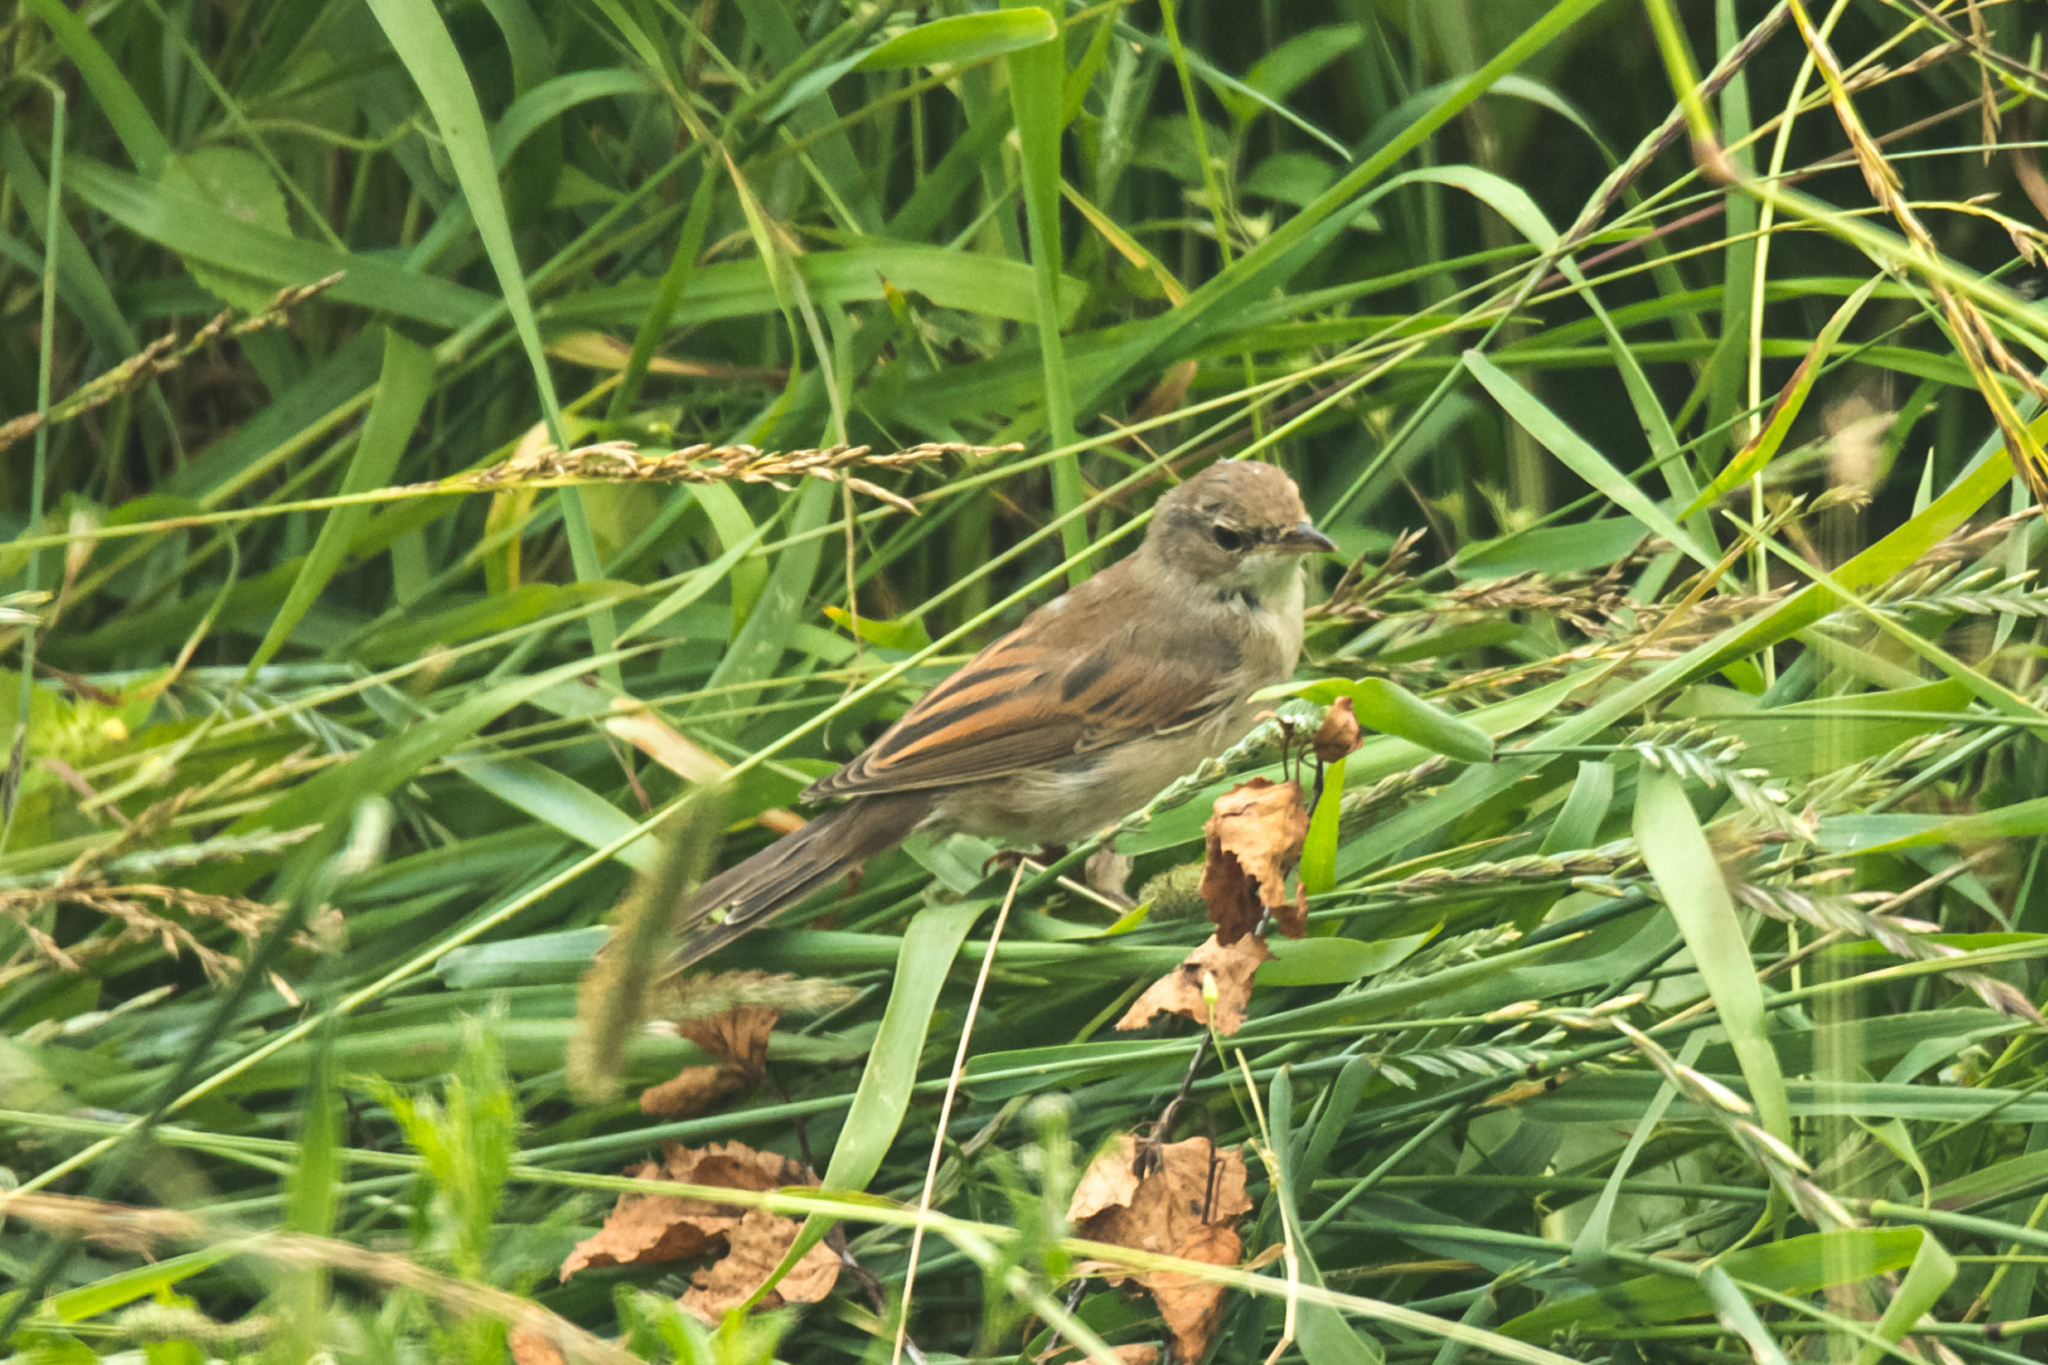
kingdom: Animalia
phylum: Chordata
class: Aves
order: Passeriformes
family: Sylviidae
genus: Sylvia
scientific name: Sylvia communis
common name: Common whitethroat
